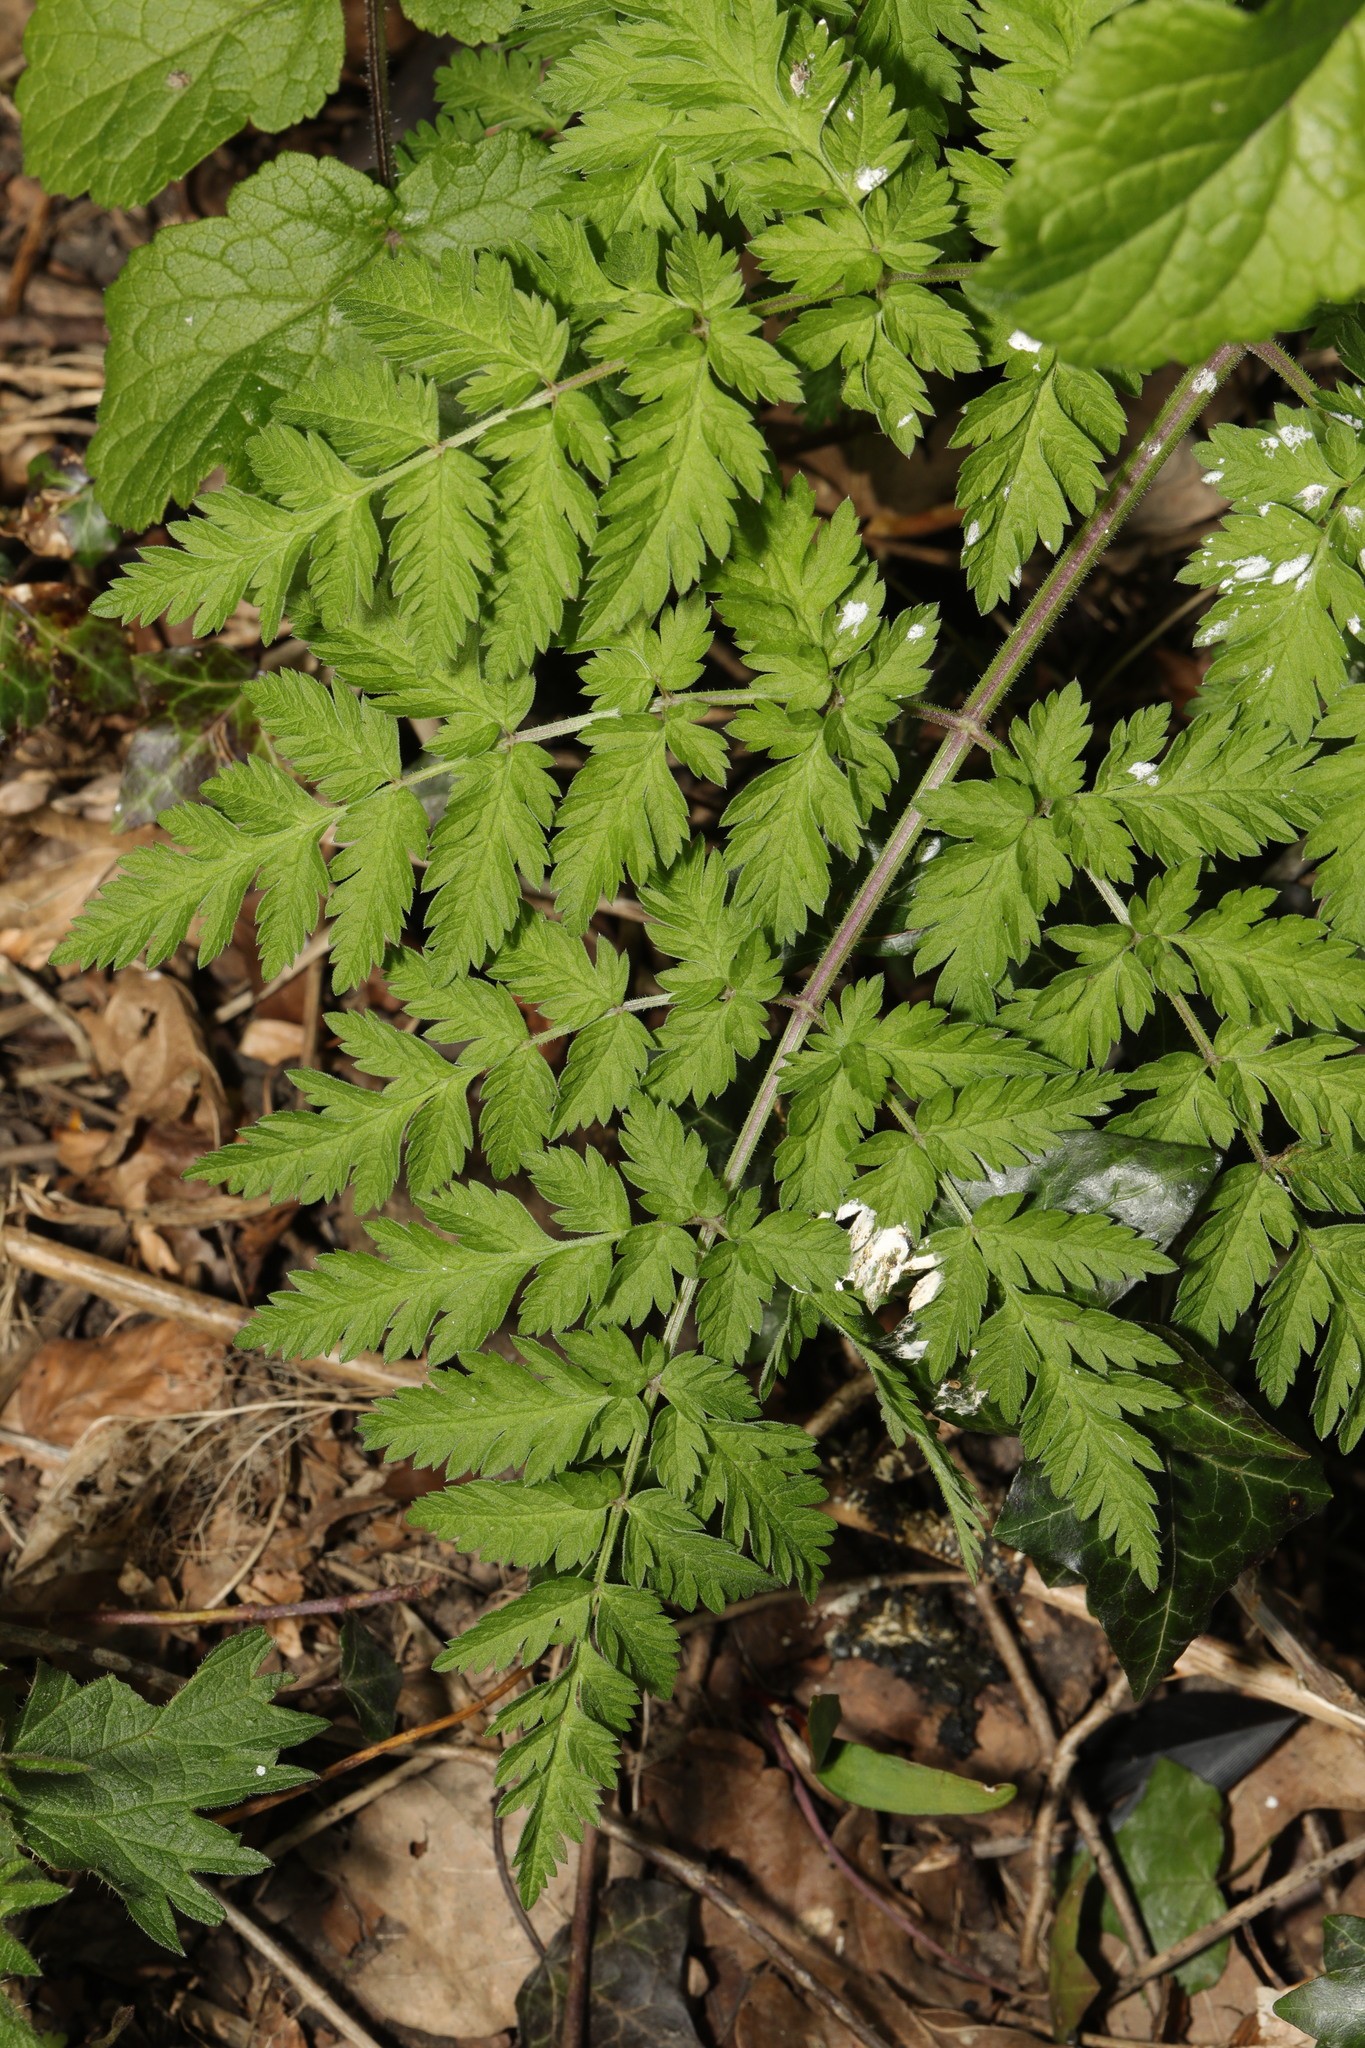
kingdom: Plantae
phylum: Tracheophyta
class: Magnoliopsida
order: Apiales
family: Apiaceae
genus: Anthriscus
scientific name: Anthriscus sylvestris
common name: Cow parsley
